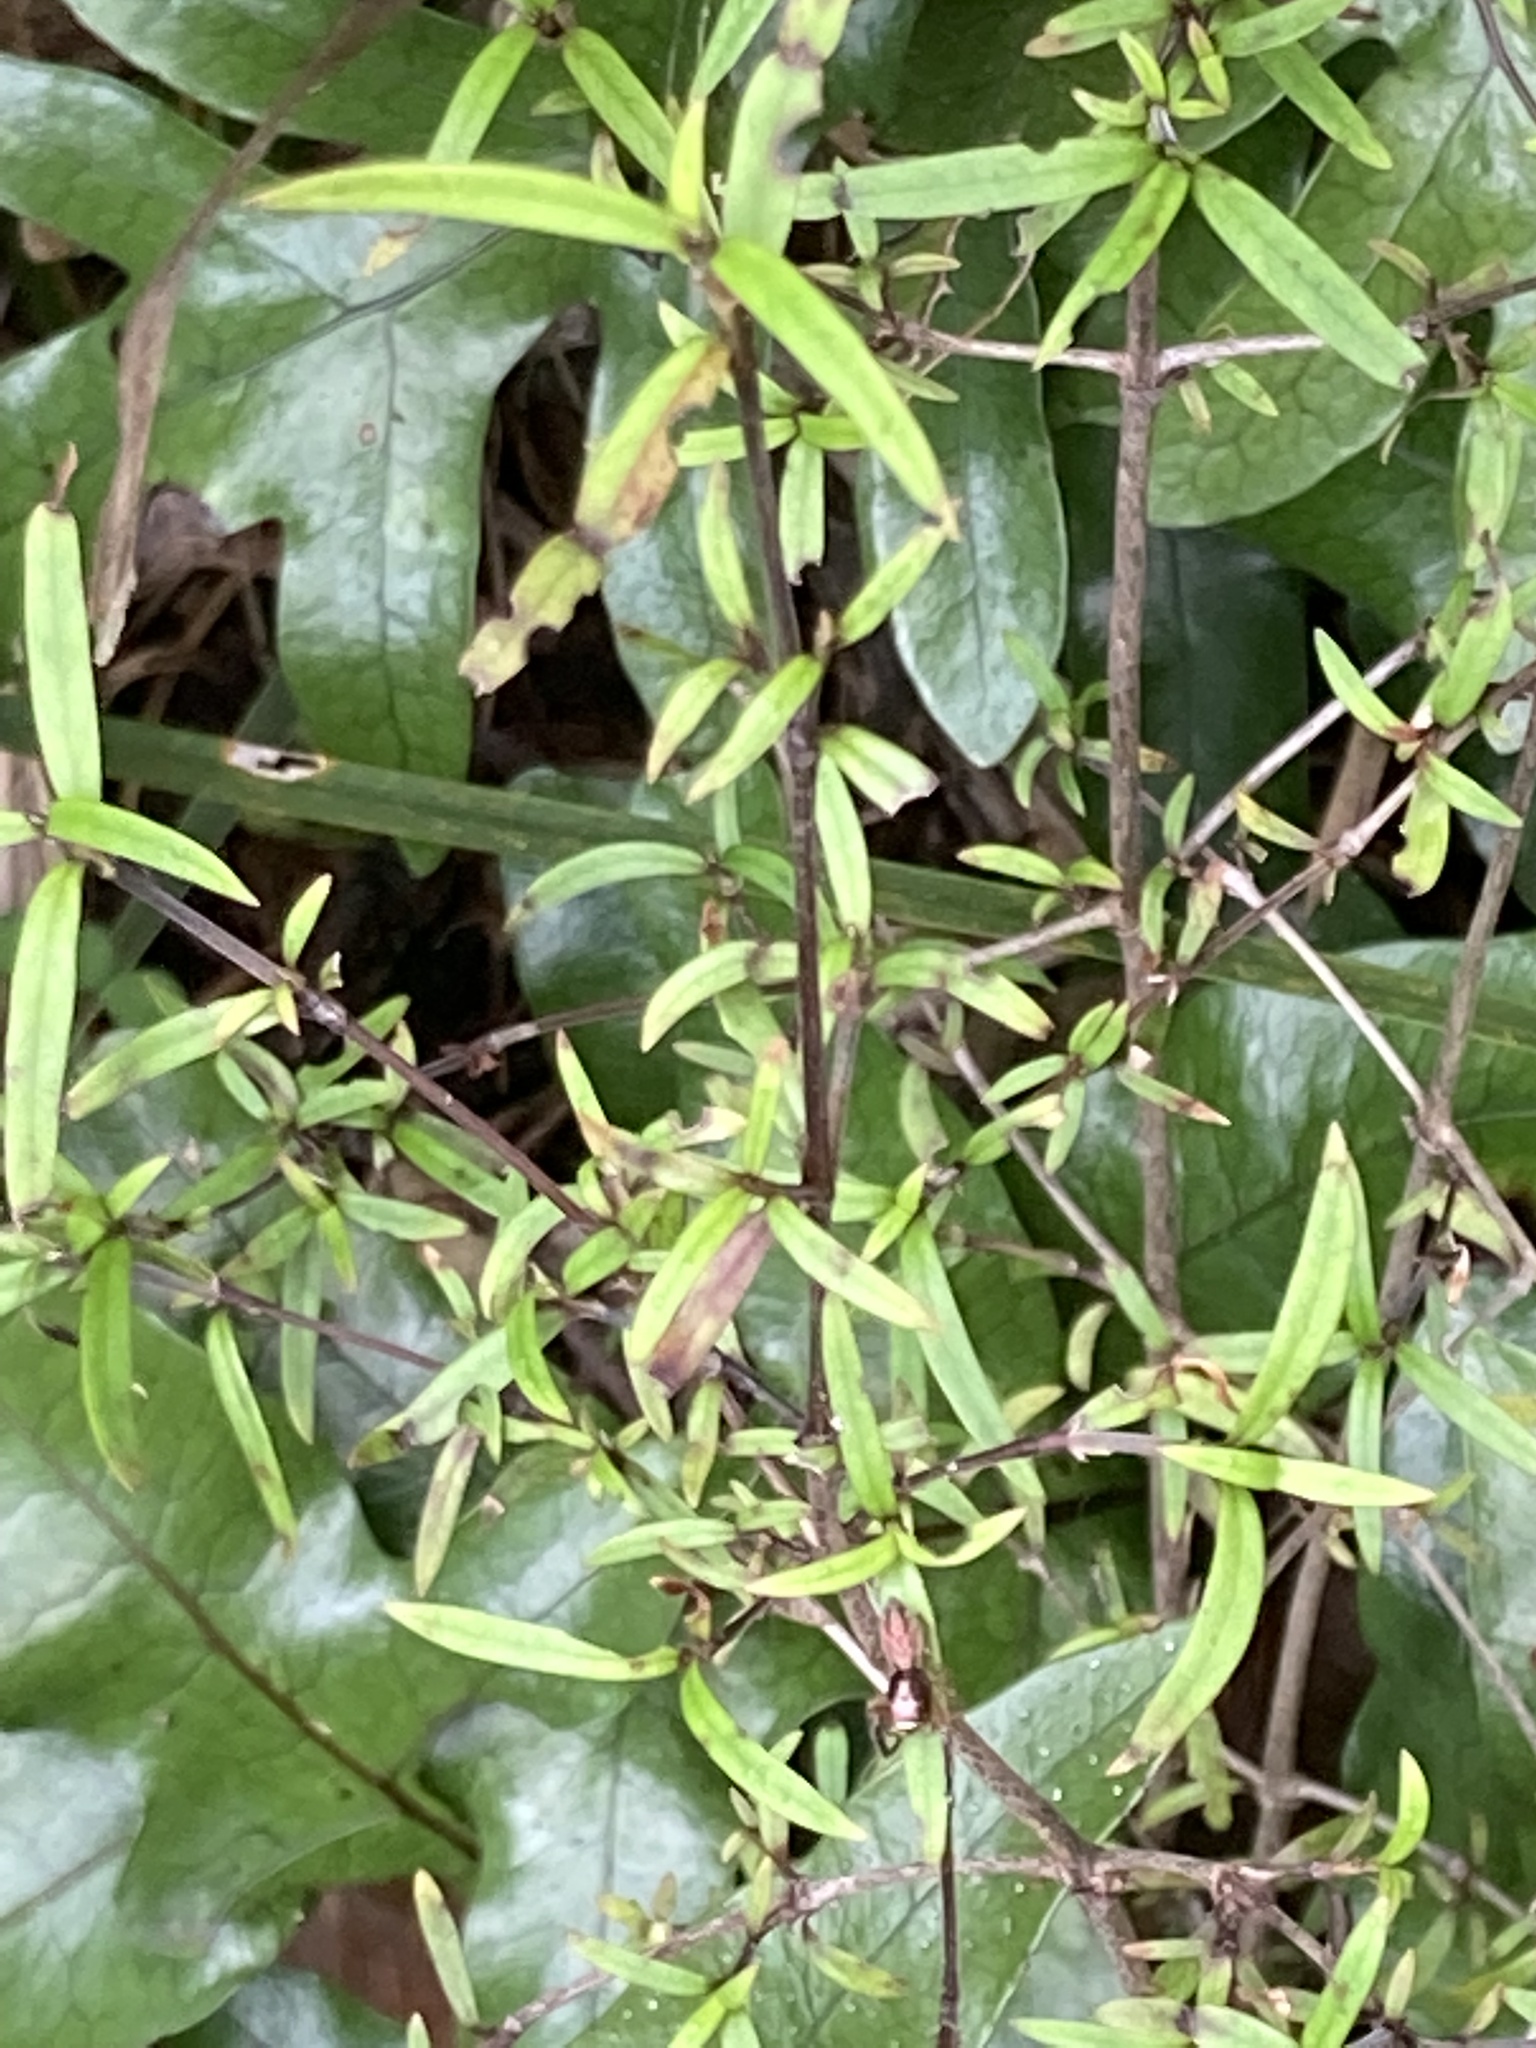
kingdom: Plantae
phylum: Tracheophyta
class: Magnoliopsida
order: Gentianales
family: Rubiaceae
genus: Coprosma
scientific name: Coprosma linariifolia
